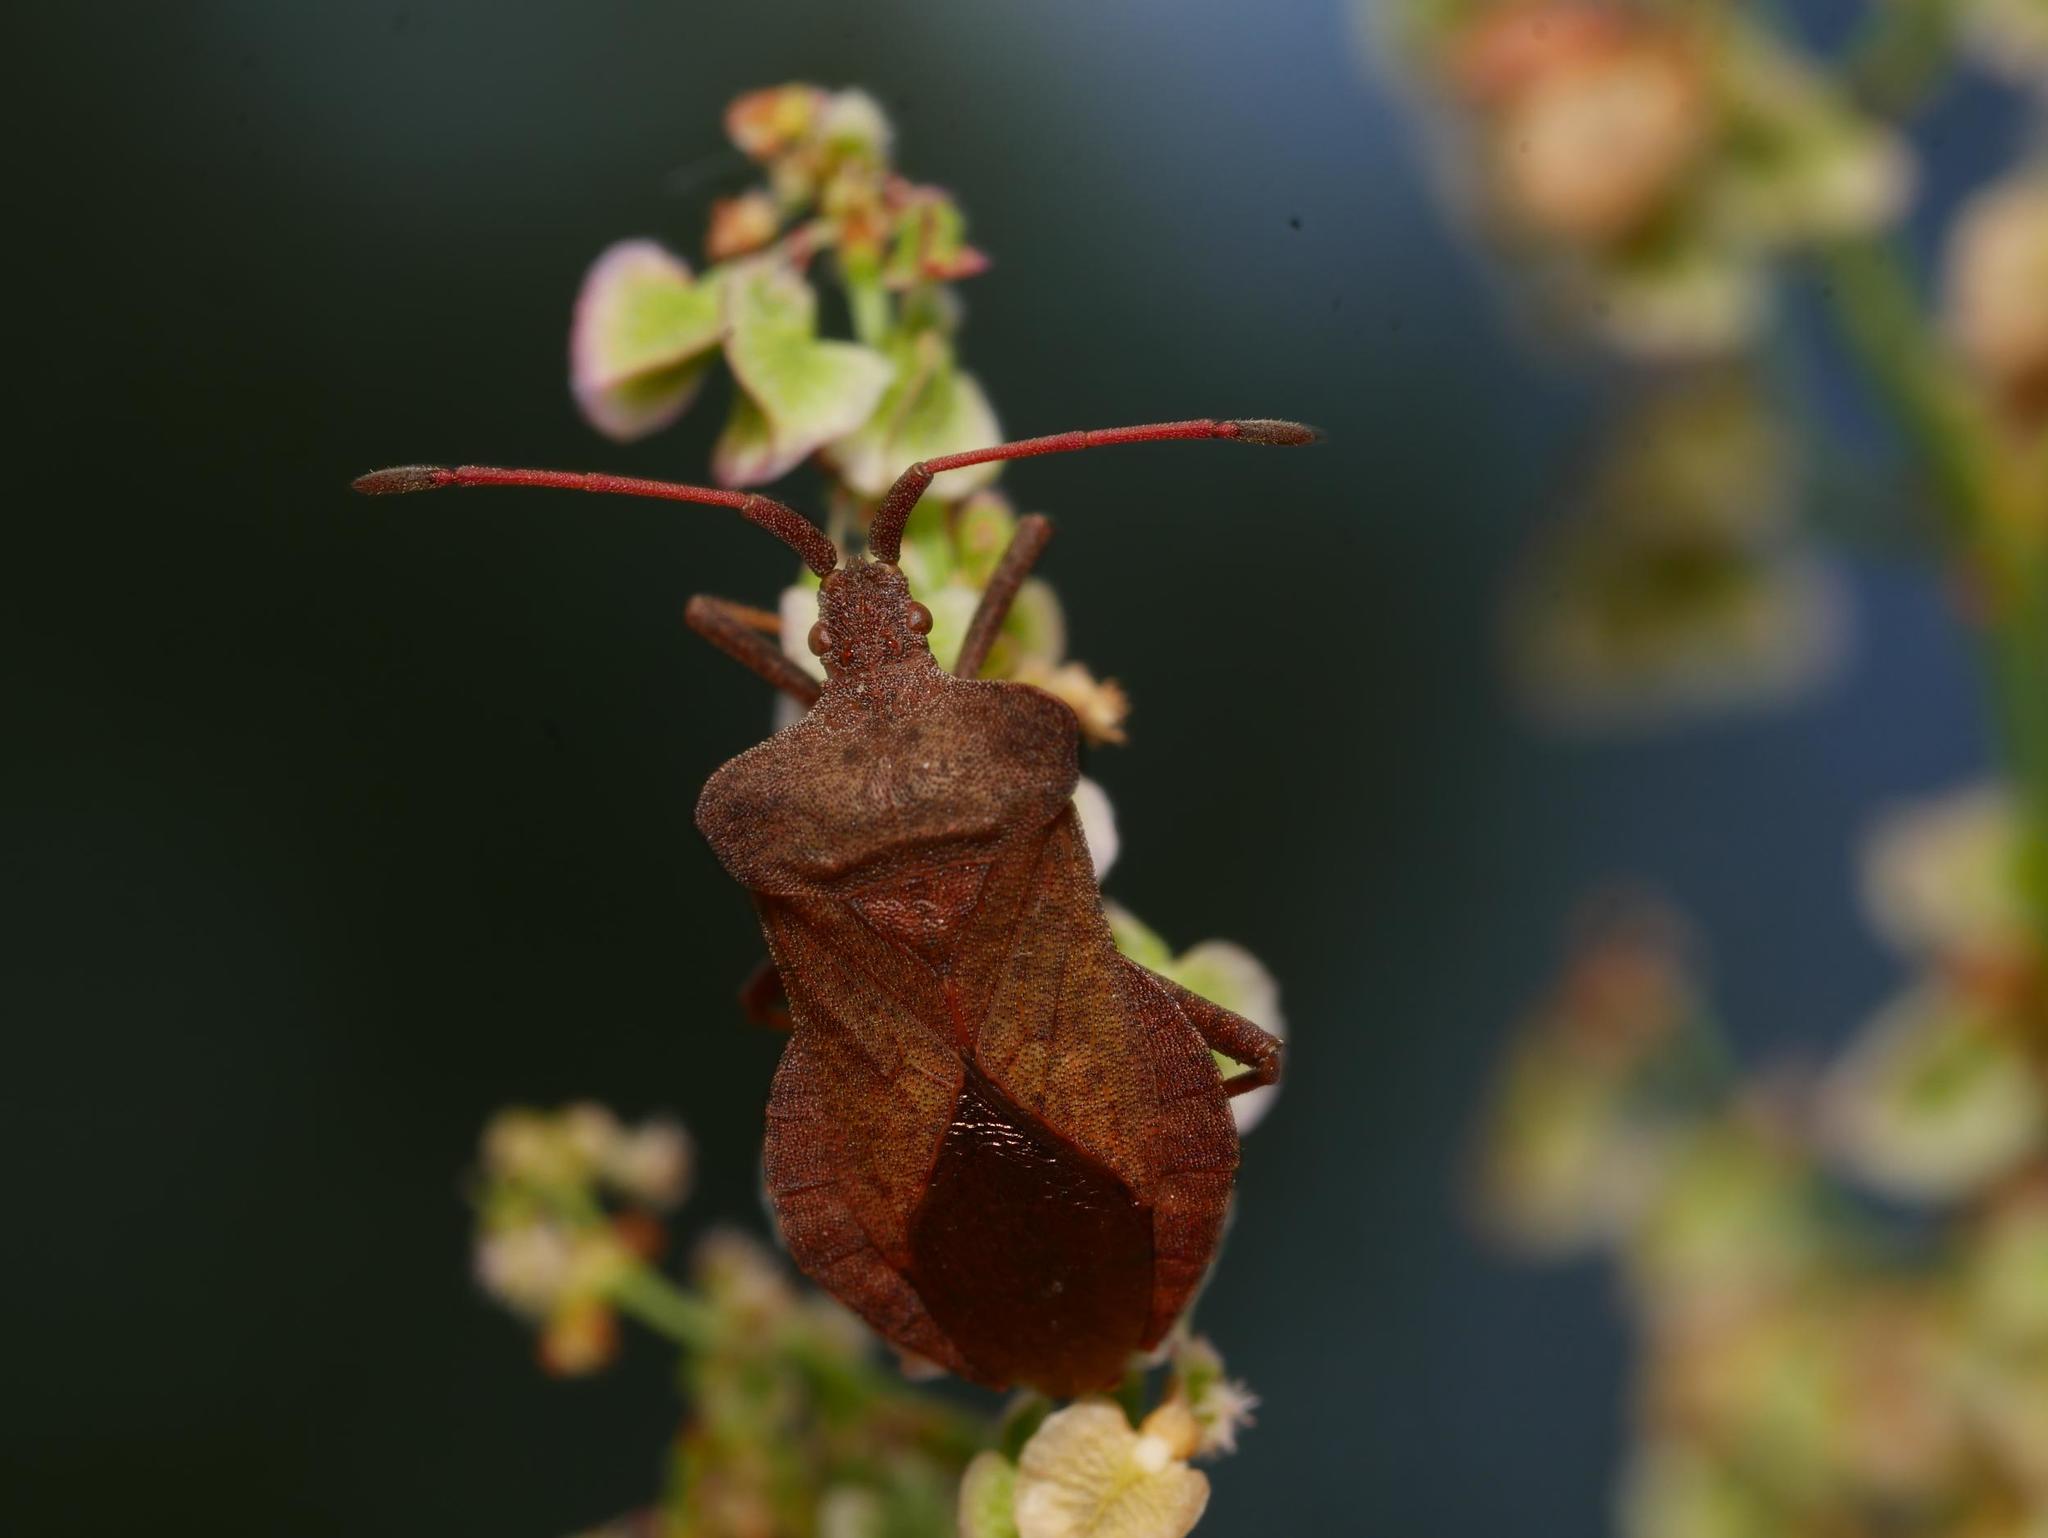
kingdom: Animalia
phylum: Arthropoda
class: Insecta
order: Hemiptera
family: Coreidae
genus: Coreus
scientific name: Coreus marginatus
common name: Dock bug
